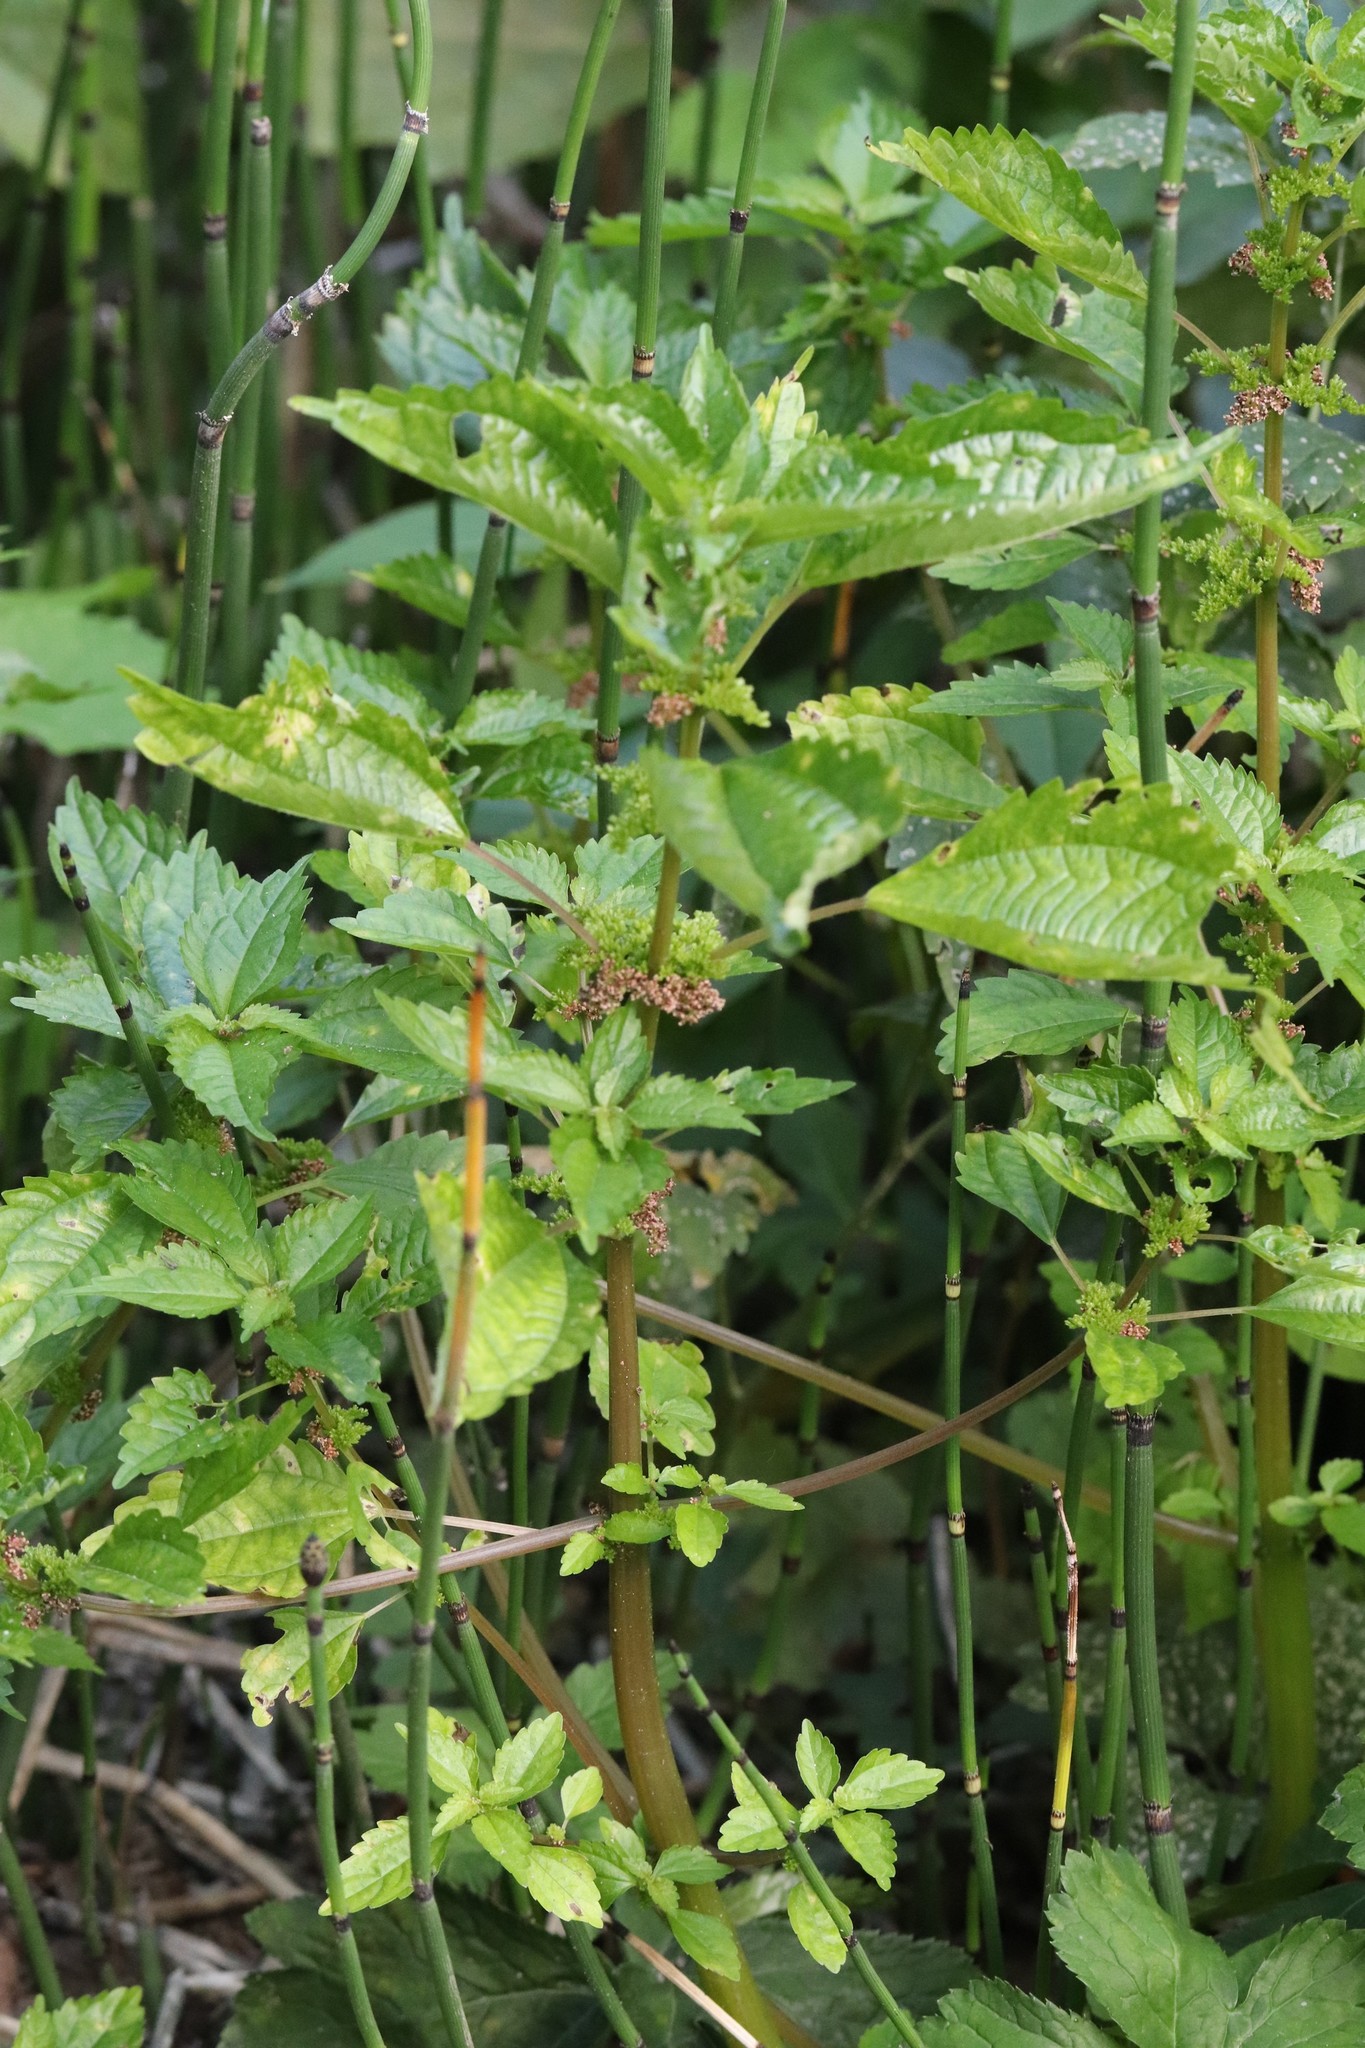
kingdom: Plantae
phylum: Tracheophyta
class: Magnoliopsida
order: Rosales
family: Urticaceae
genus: Pilea
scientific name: Pilea pumila
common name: Clearweed
